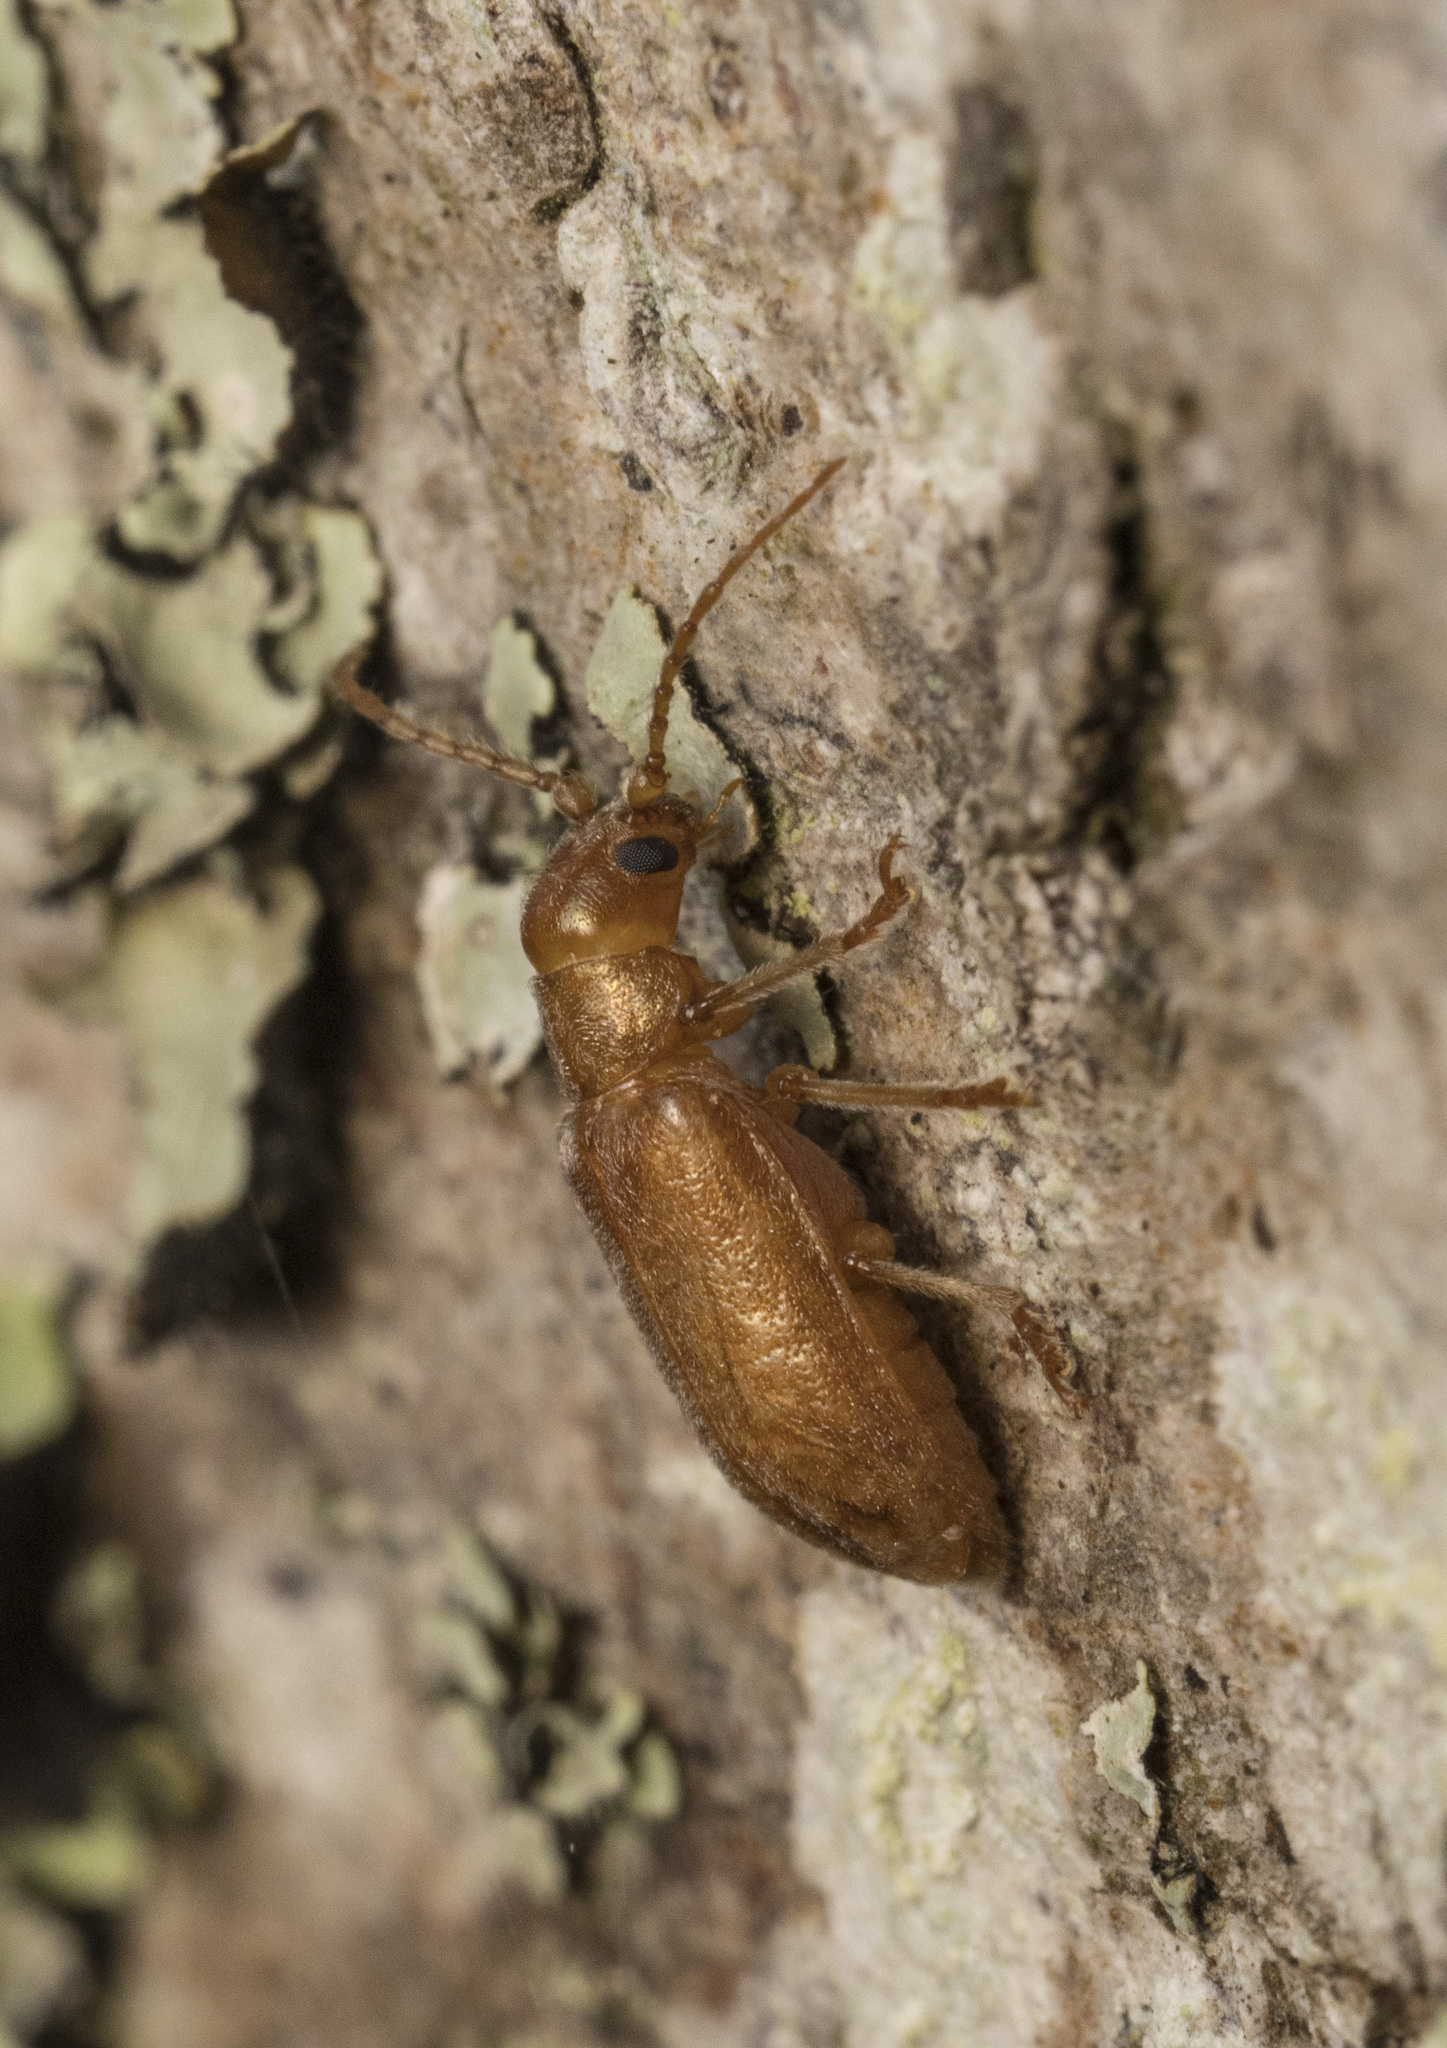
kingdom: Animalia
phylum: Arthropoda
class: Insecta
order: Plecoptera
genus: Hornius
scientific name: Hornius
